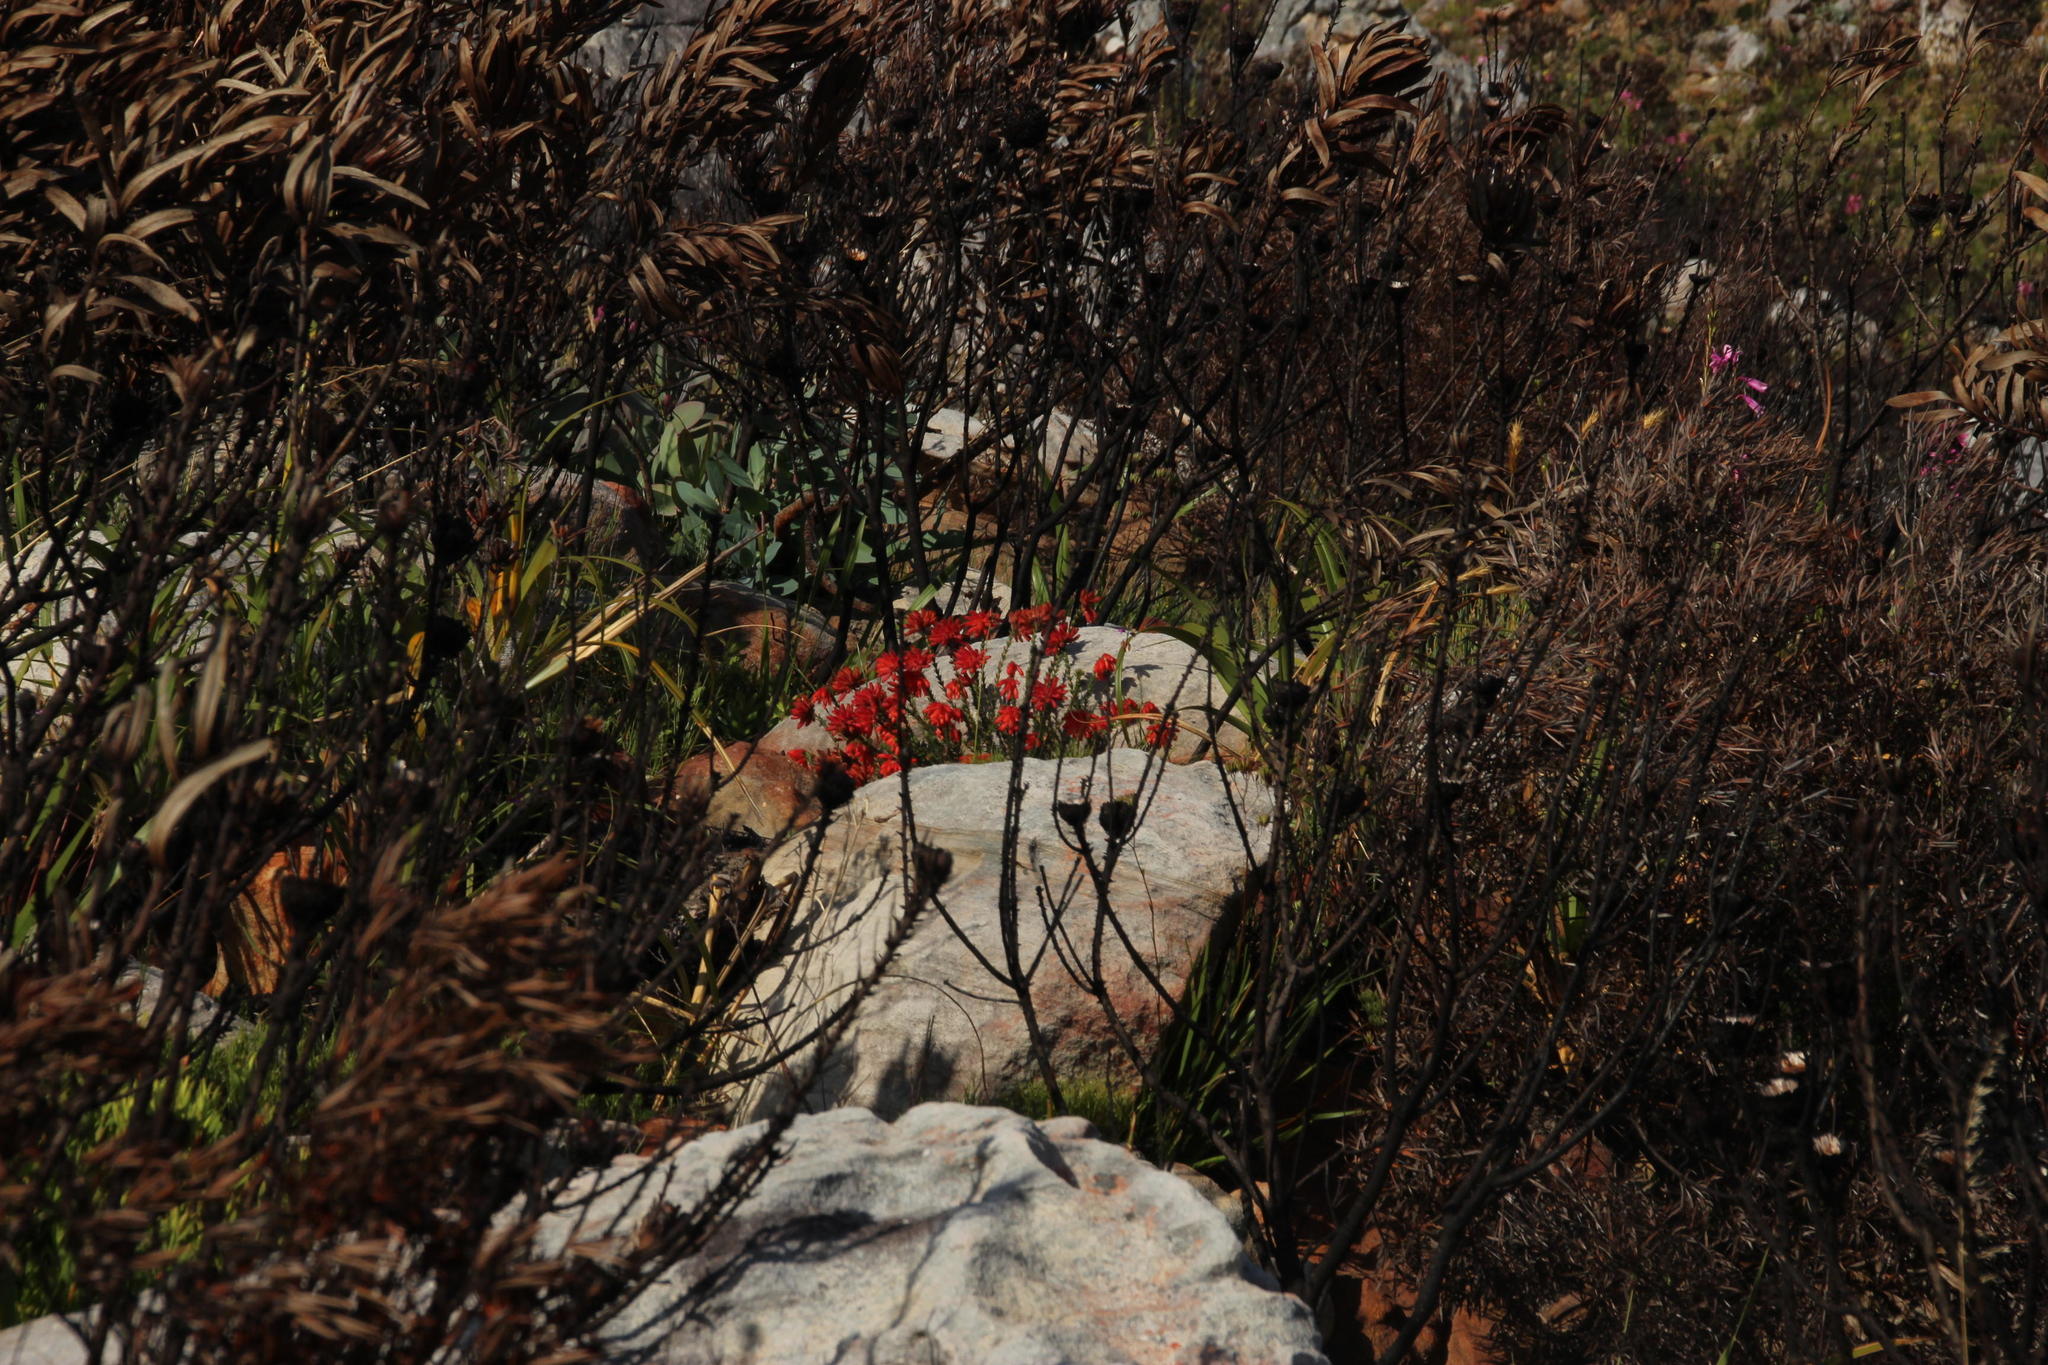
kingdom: Plantae
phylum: Tracheophyta
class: Magnoliopsida
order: Ericales
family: Ericaceae
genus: Erica
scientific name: Erica cerinthoides
